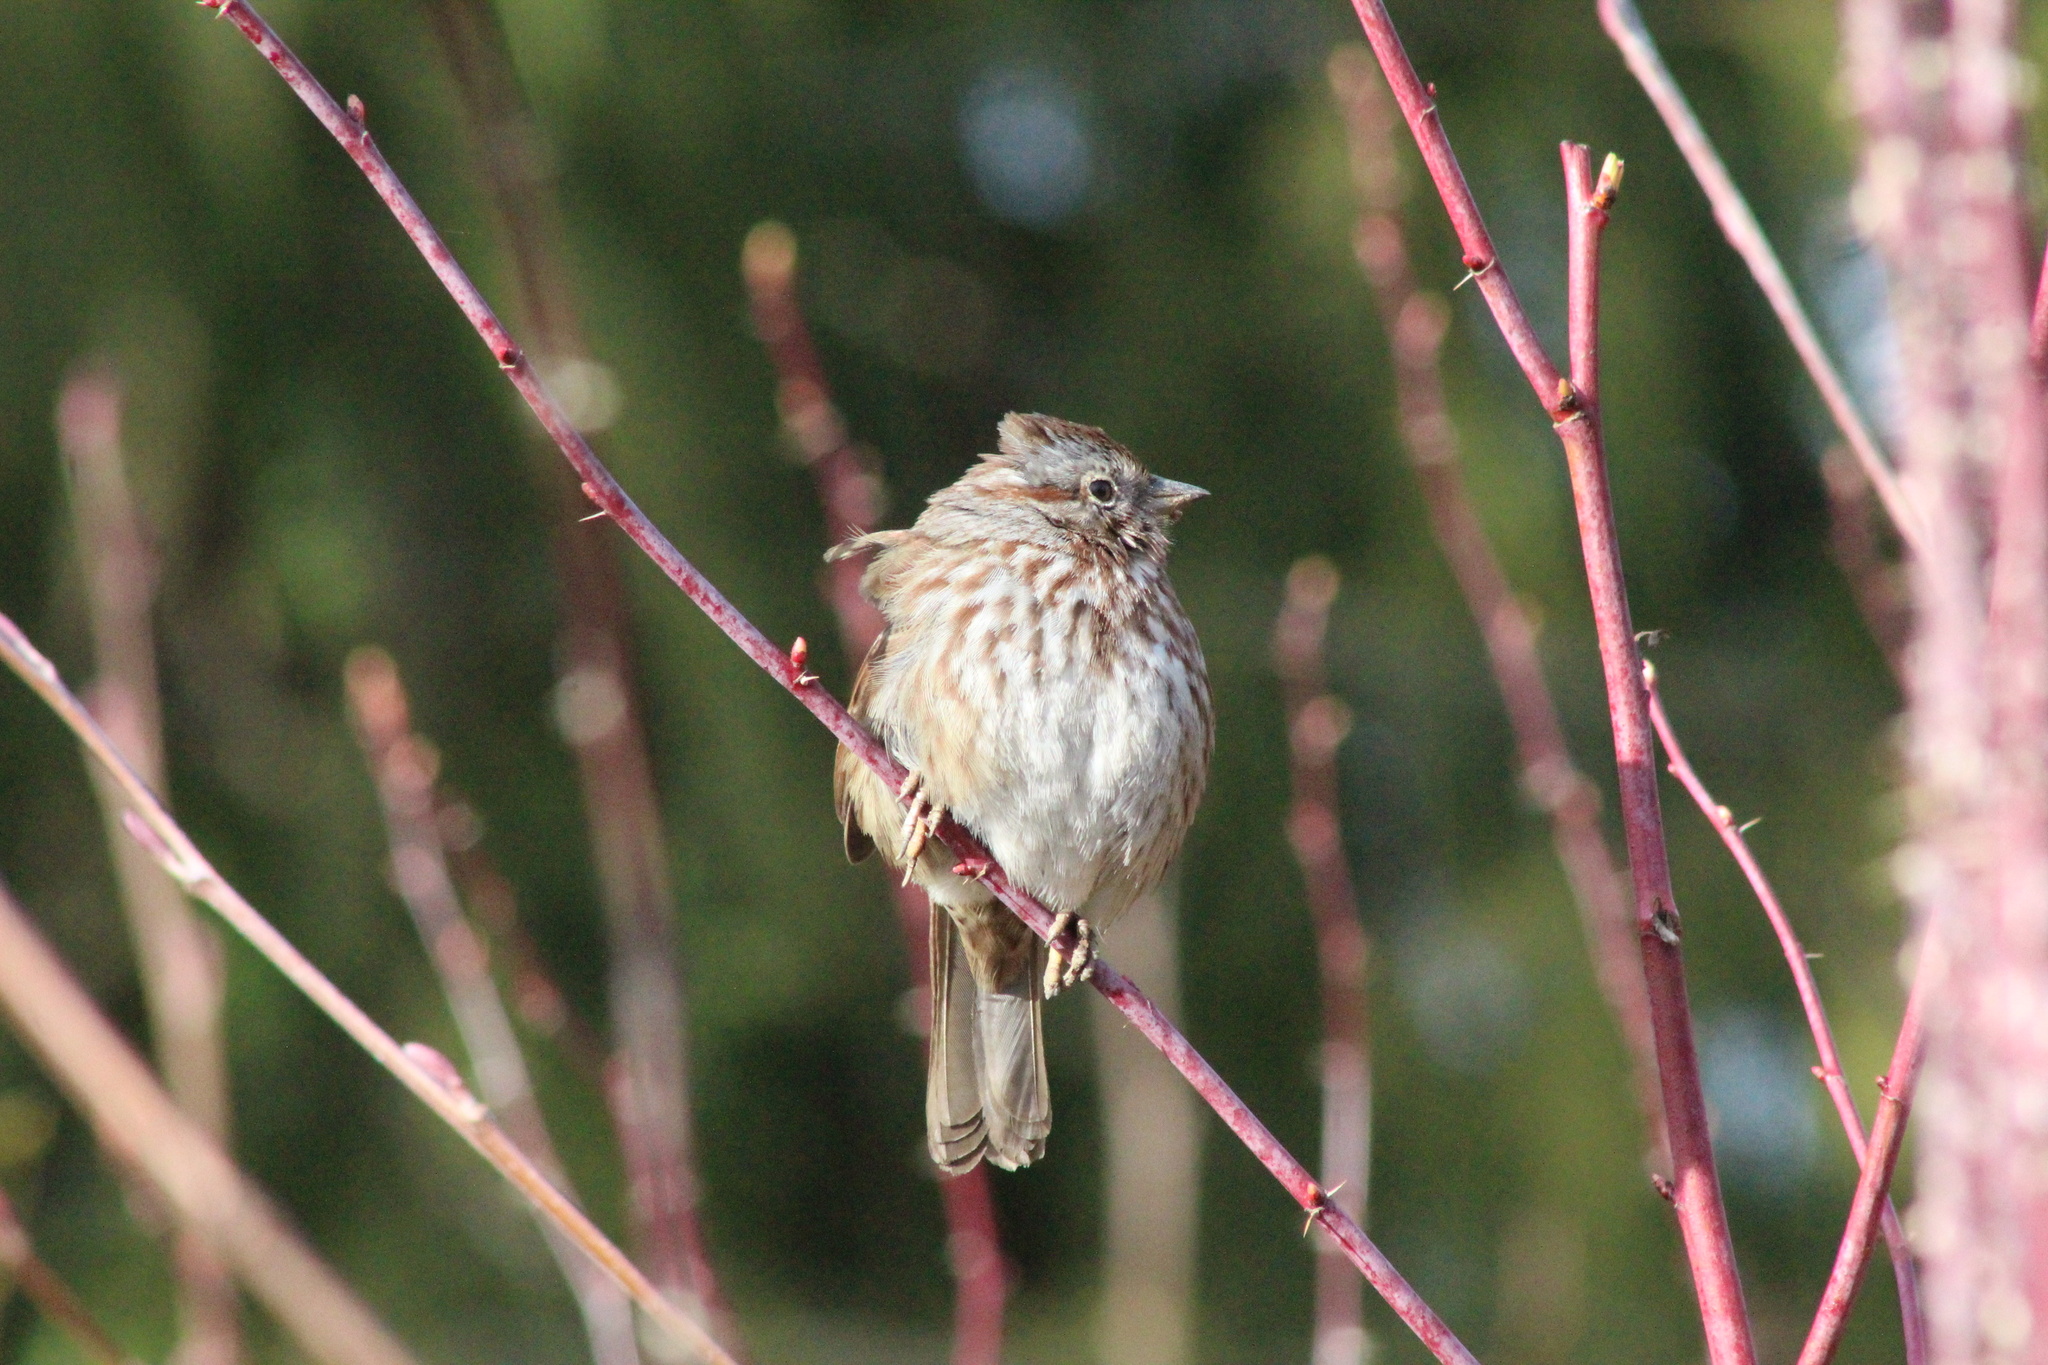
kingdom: Animalia
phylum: Chordata
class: Aves
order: Passeriformes
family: Passerellidae
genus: Melospiza
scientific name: Melospiza melodia
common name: Song sparrow
